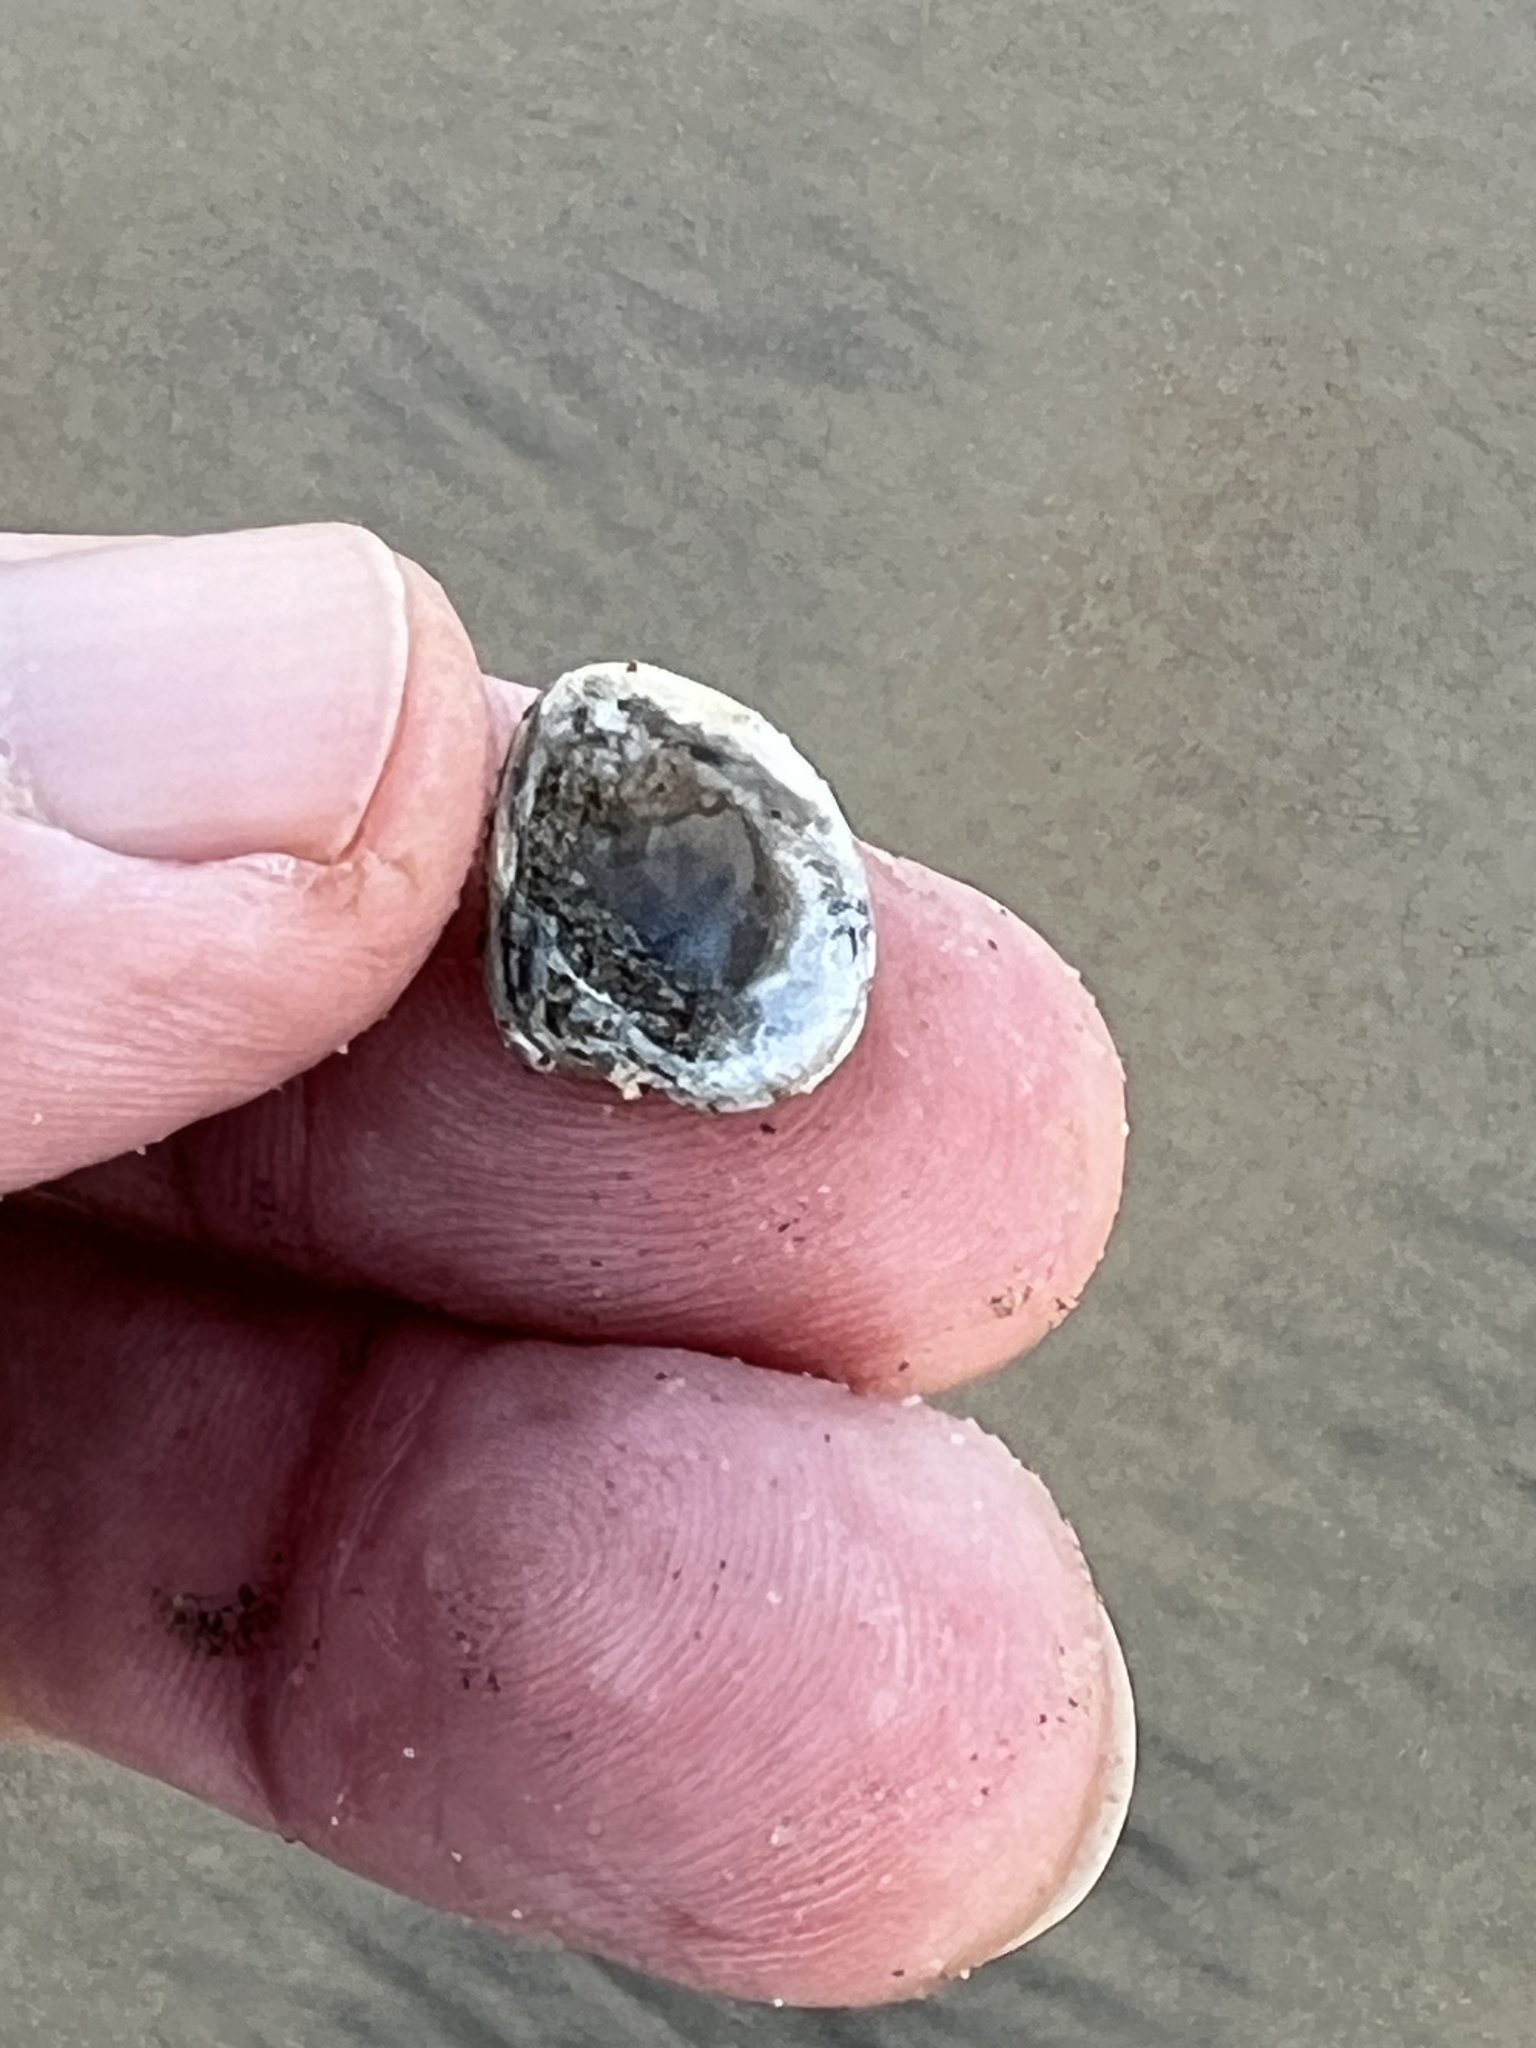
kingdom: Animalia
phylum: Mollusca
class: Bivalvia
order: Venerida
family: Veneridae
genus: Chione
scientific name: Chione californiensis
